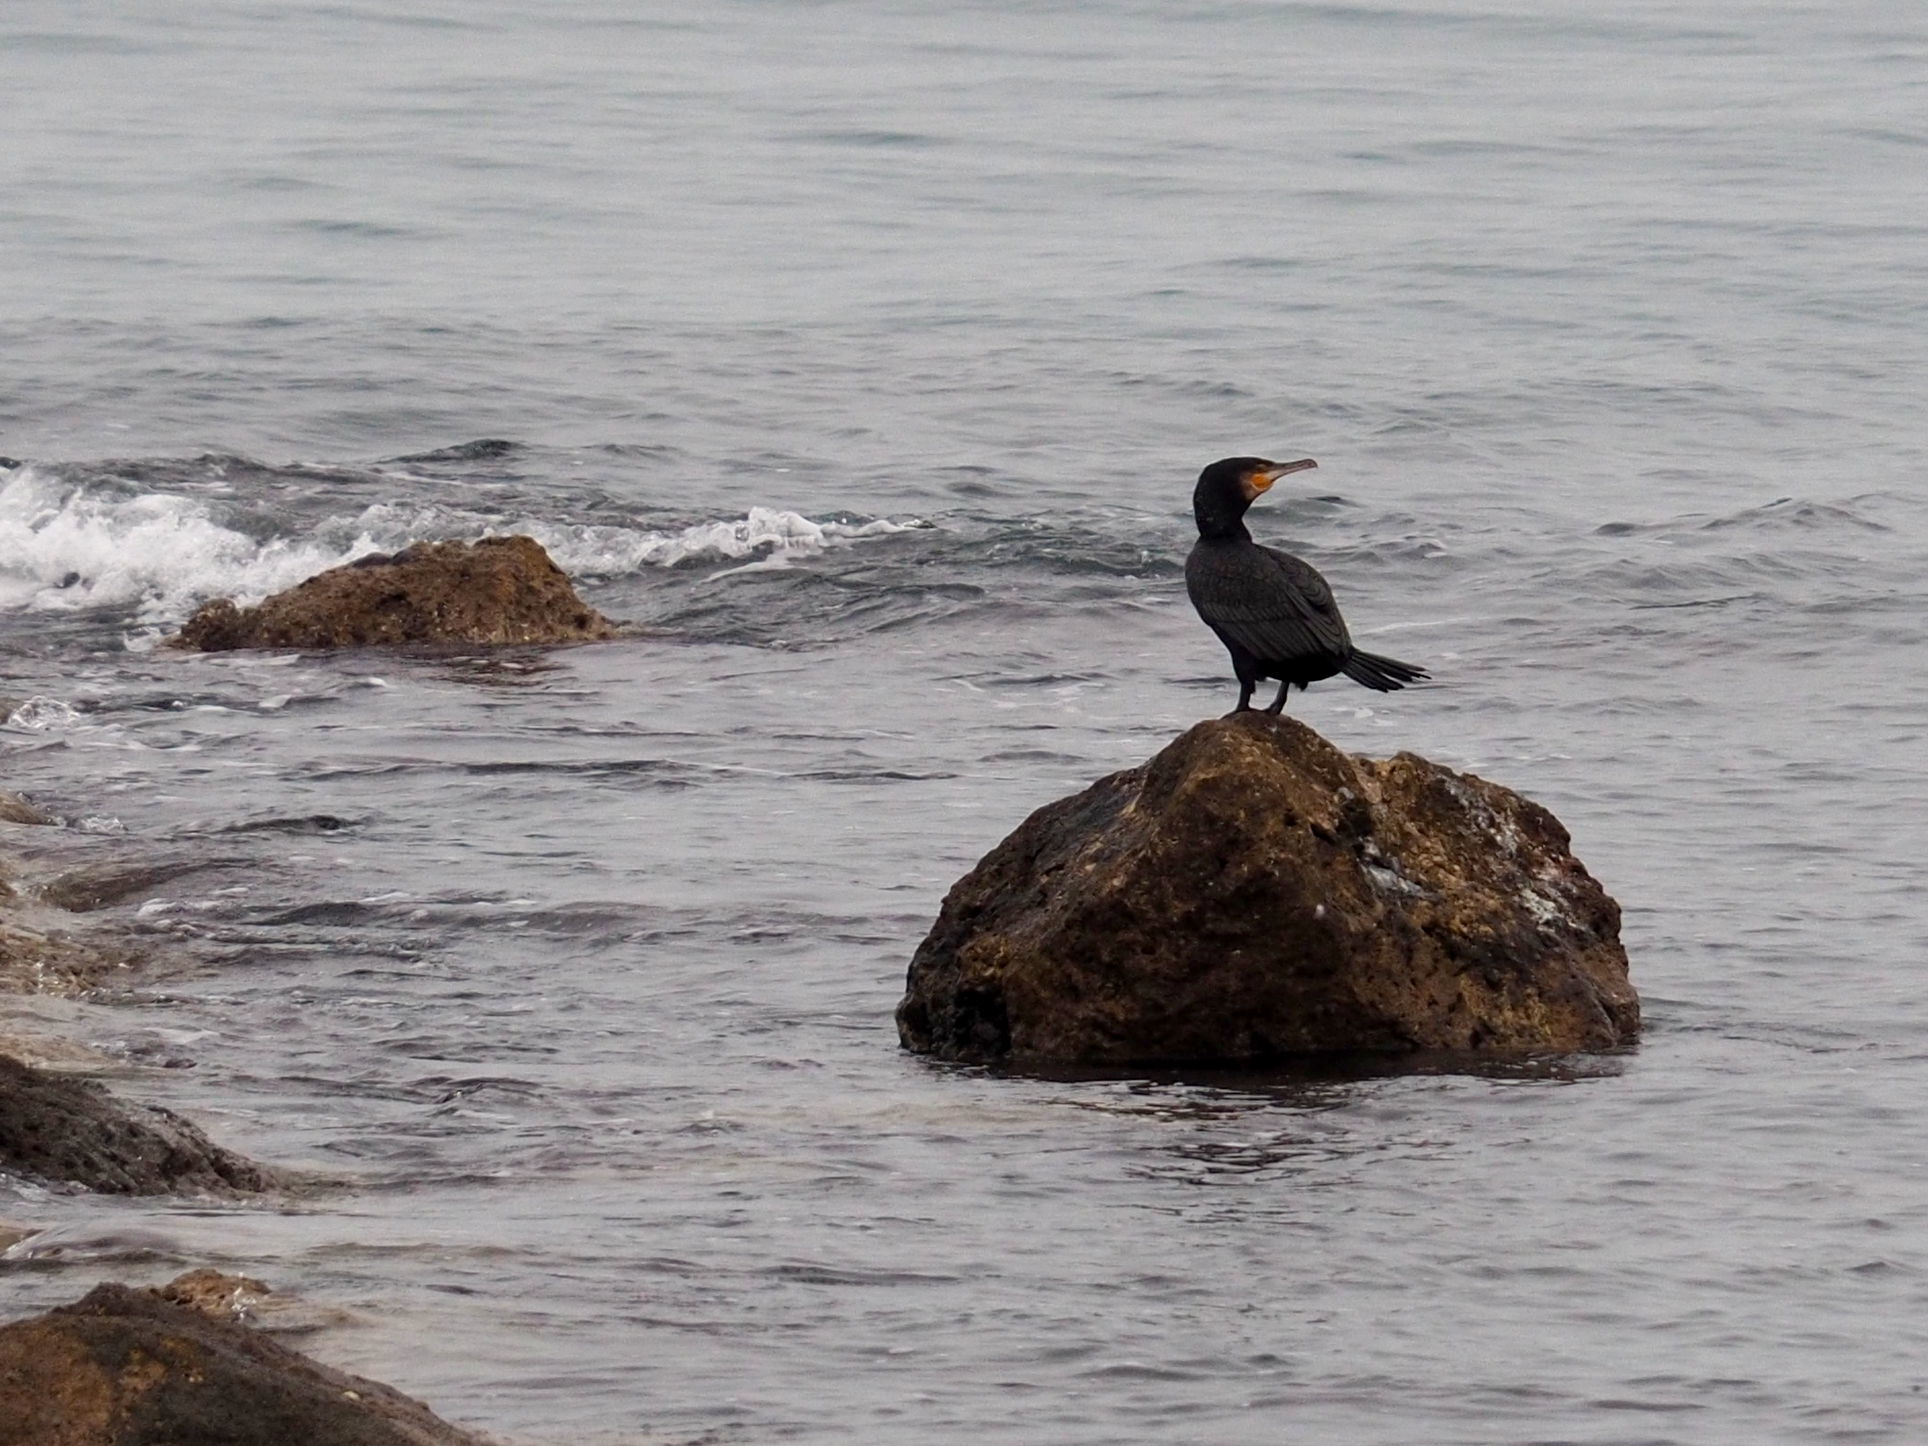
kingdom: Animalia
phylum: Chordata
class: Aves
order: Suliformes
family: Phalacrocoracidae
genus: Phalacrocorax
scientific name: Phalacrocorax carbo
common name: Great cormorant
